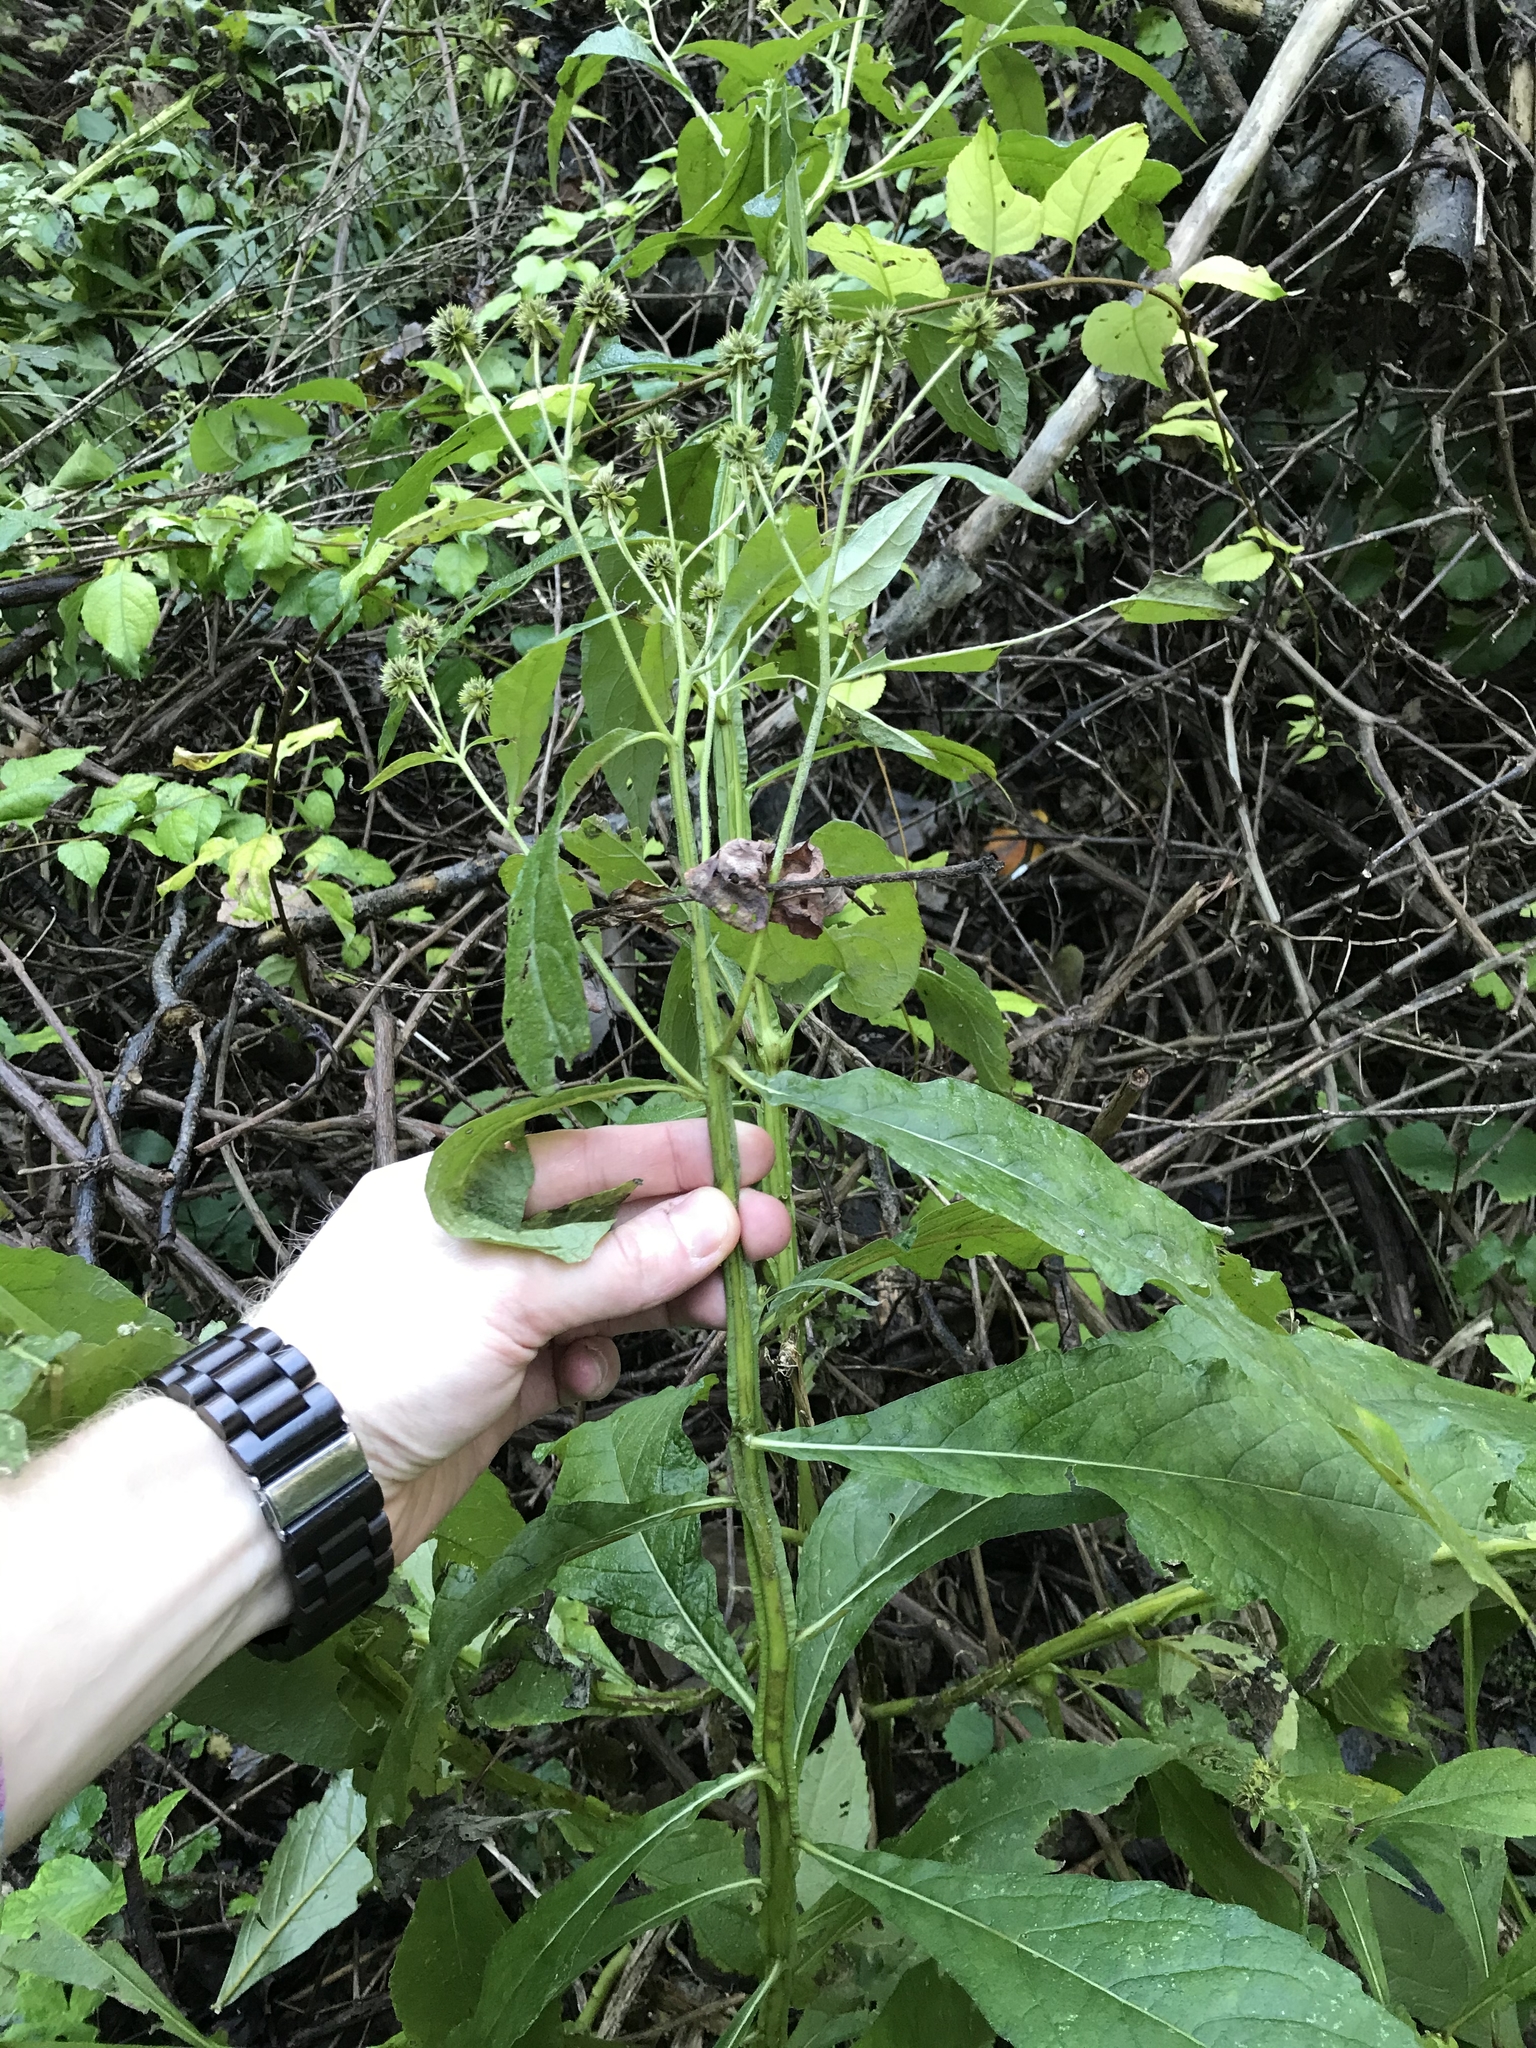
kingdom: Plantae
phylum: Tracheophyta
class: Magnoliopsida
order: Asterales
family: Asteraceae
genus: Verbesina
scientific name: Verbesina alternifolia
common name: Wingstem
